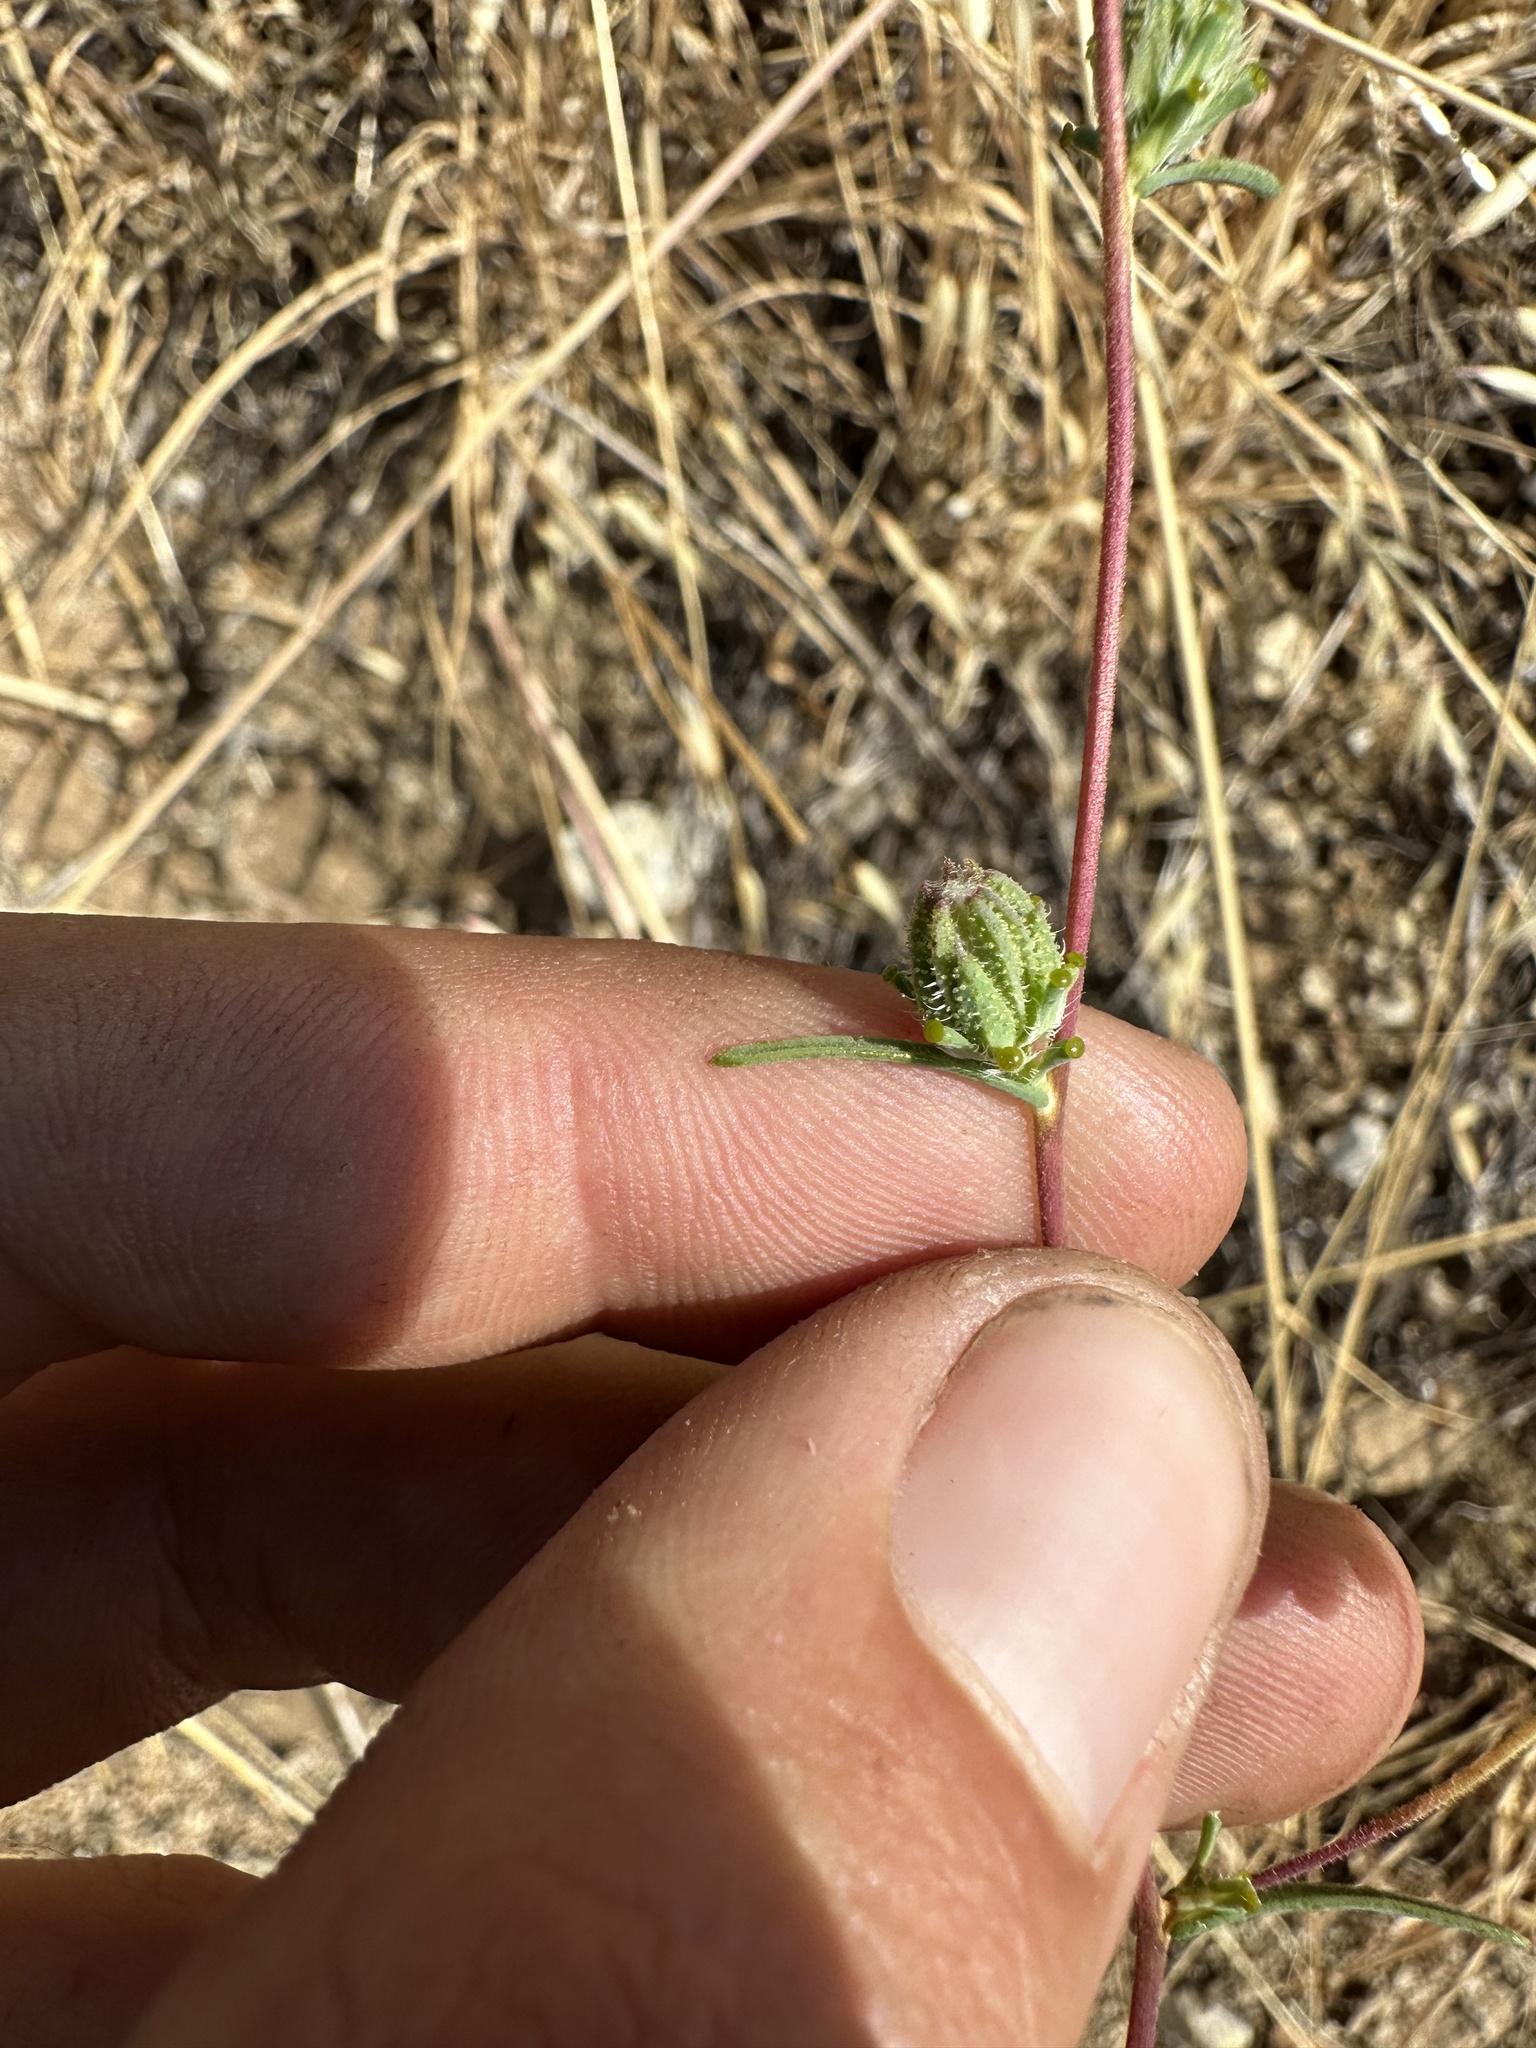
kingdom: Plantae
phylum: Tracheophyta
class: Magnoliopsida
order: Asterales
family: Asteraceae
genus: Calycadenia
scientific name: Calycadenia truncata
